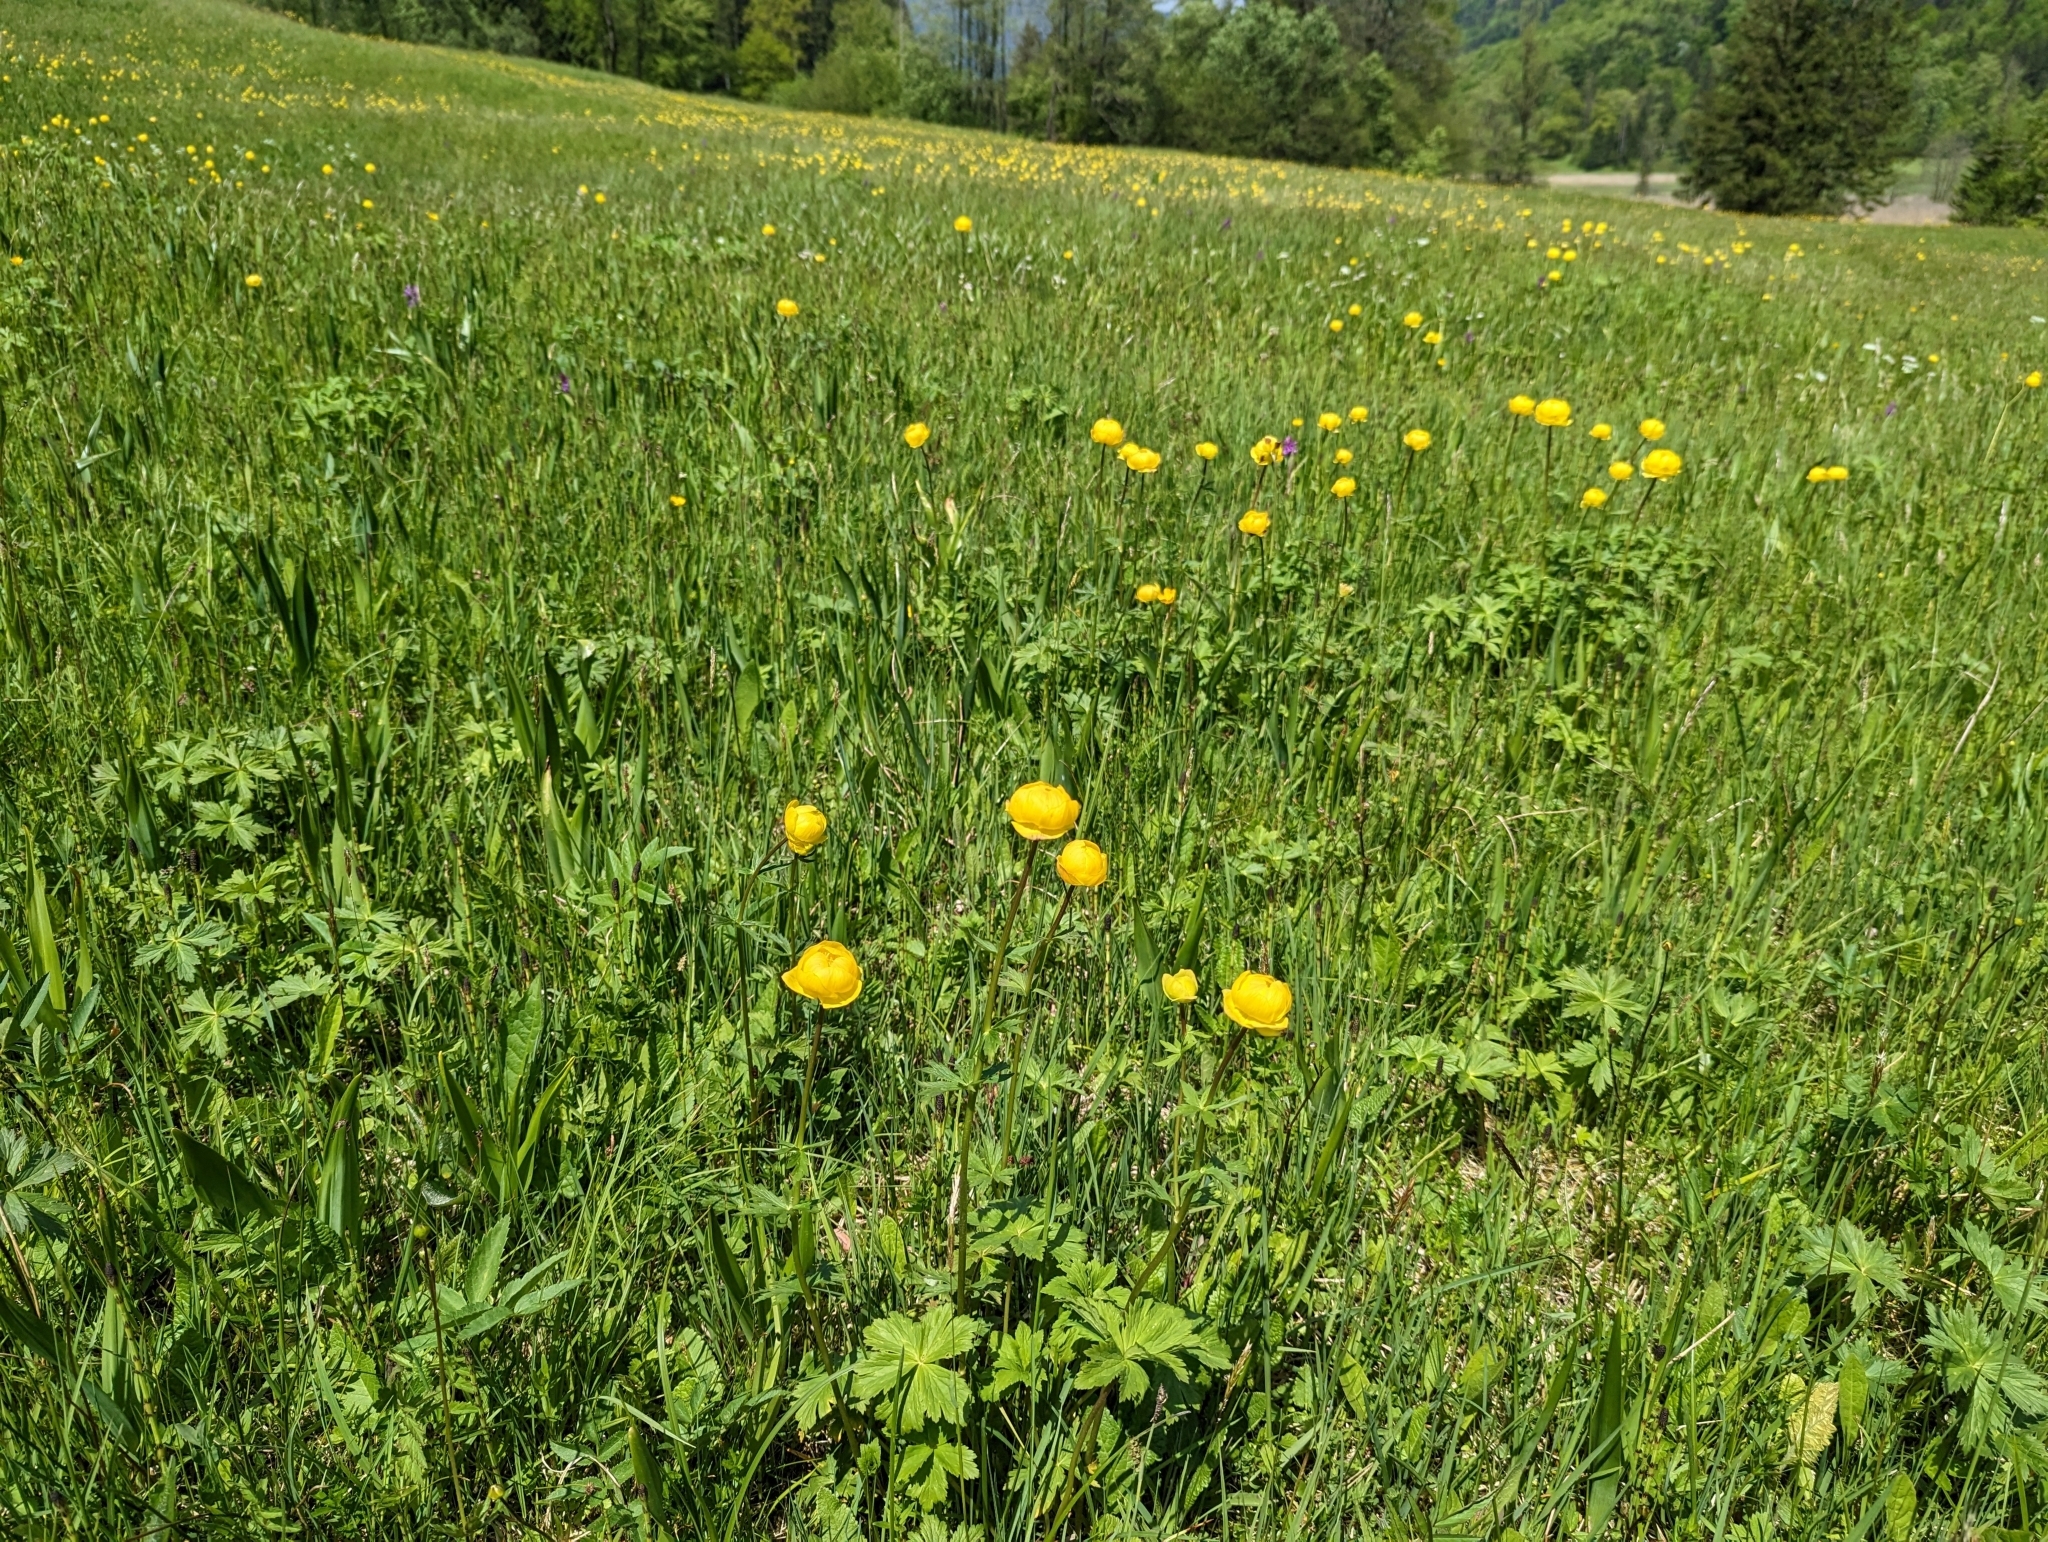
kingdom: Plantae
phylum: Tracheophyta
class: Magnoliopsida
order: Ranunculales
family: Ranunculaceae
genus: Trollius
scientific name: Trollius europaeus
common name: European globeflower
